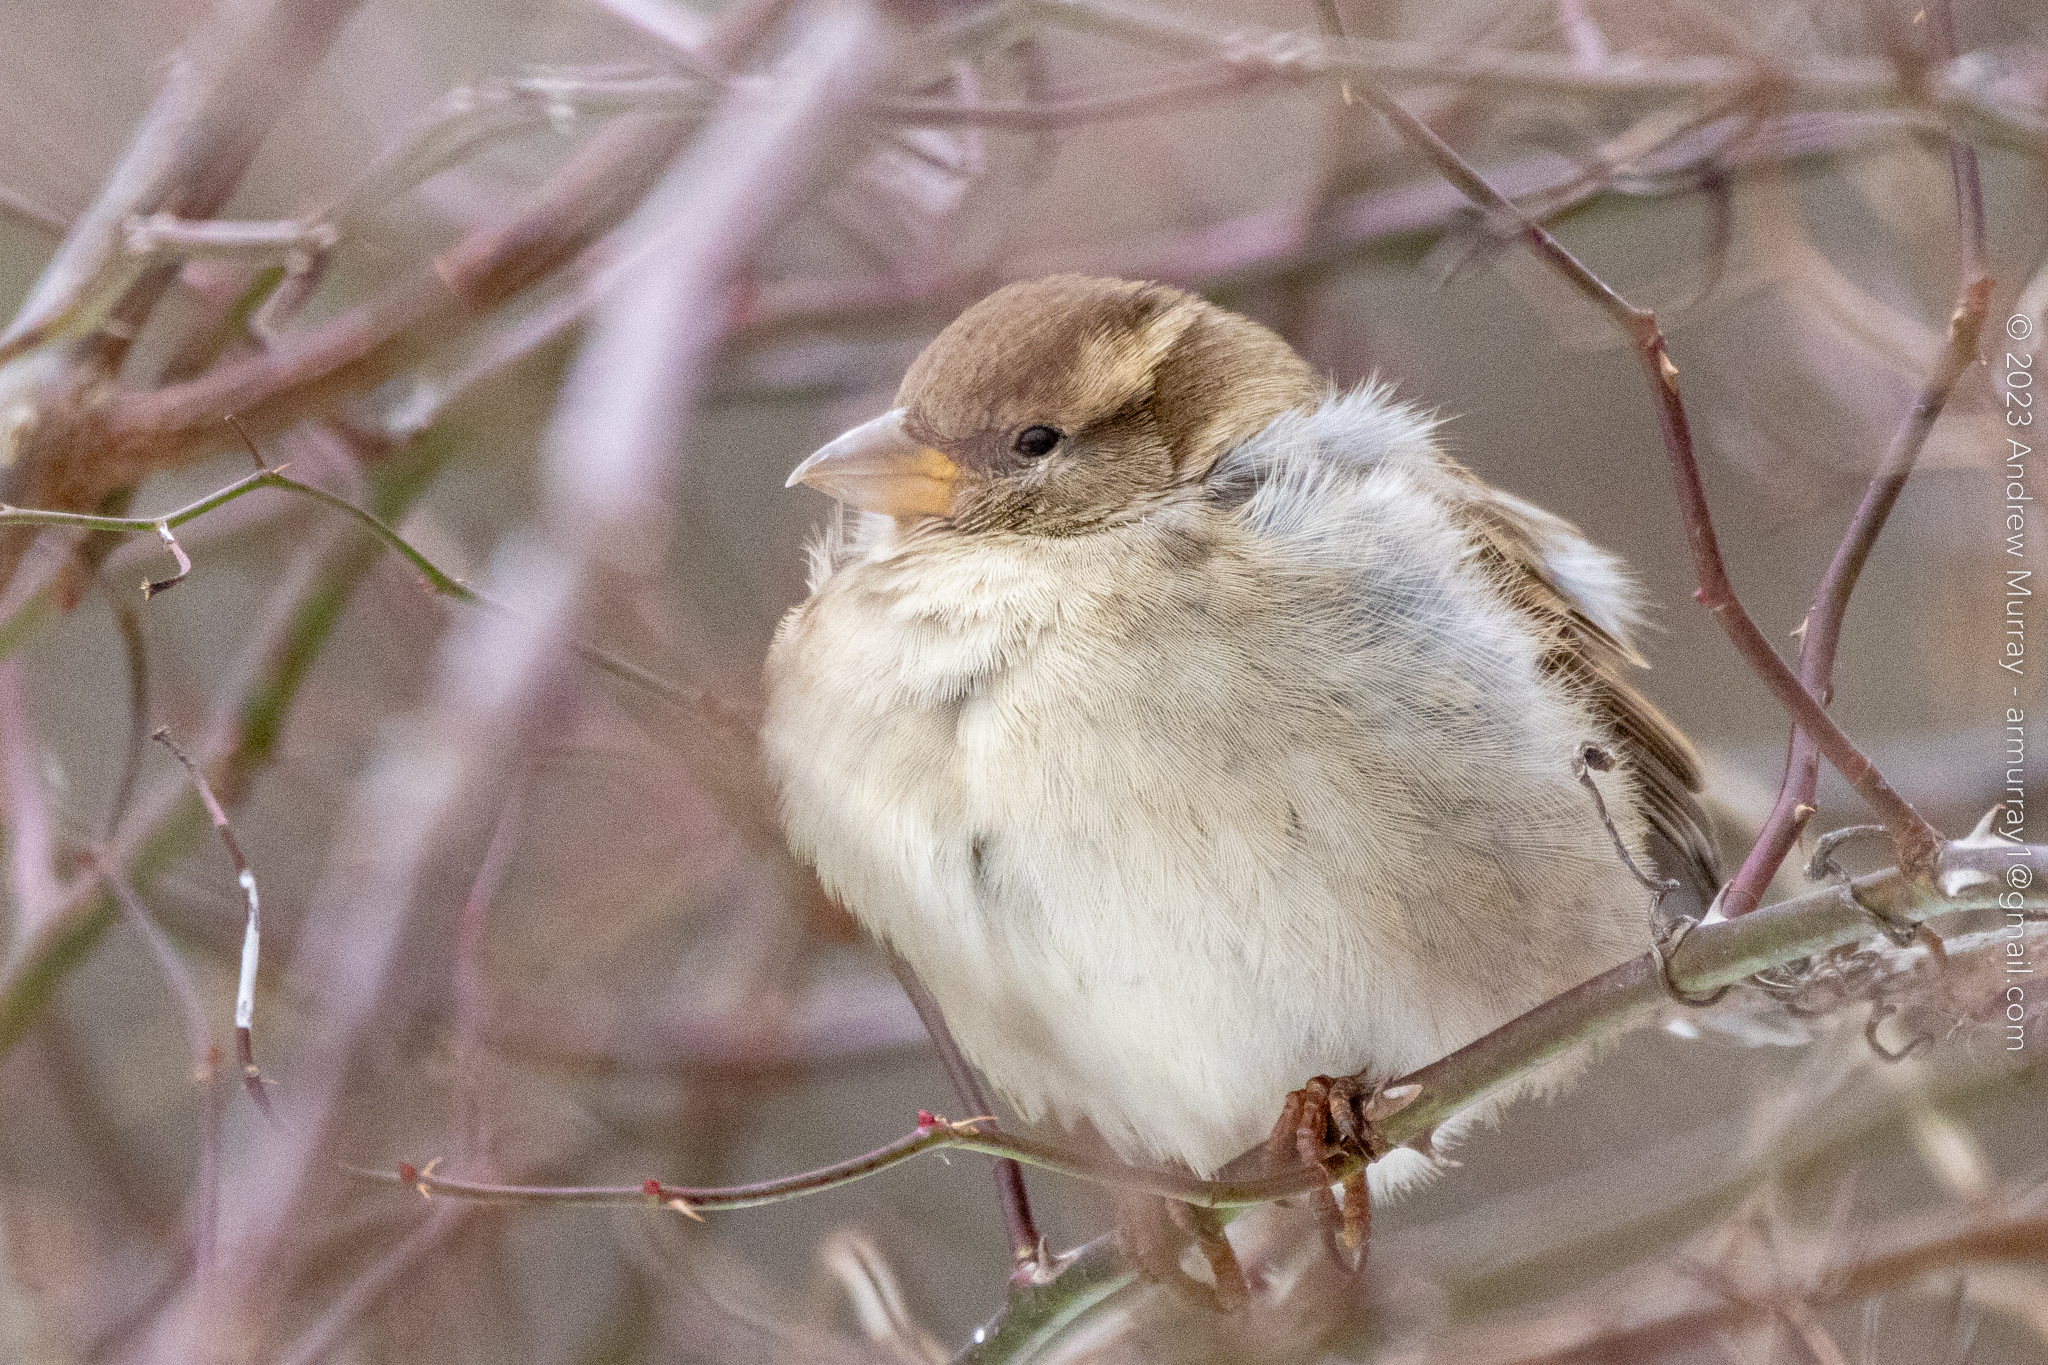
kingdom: Animalia
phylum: Chordata
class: Aves
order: Passeriformes
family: Passeridae
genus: Passer
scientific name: Passer domesticus
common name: House sparrow
